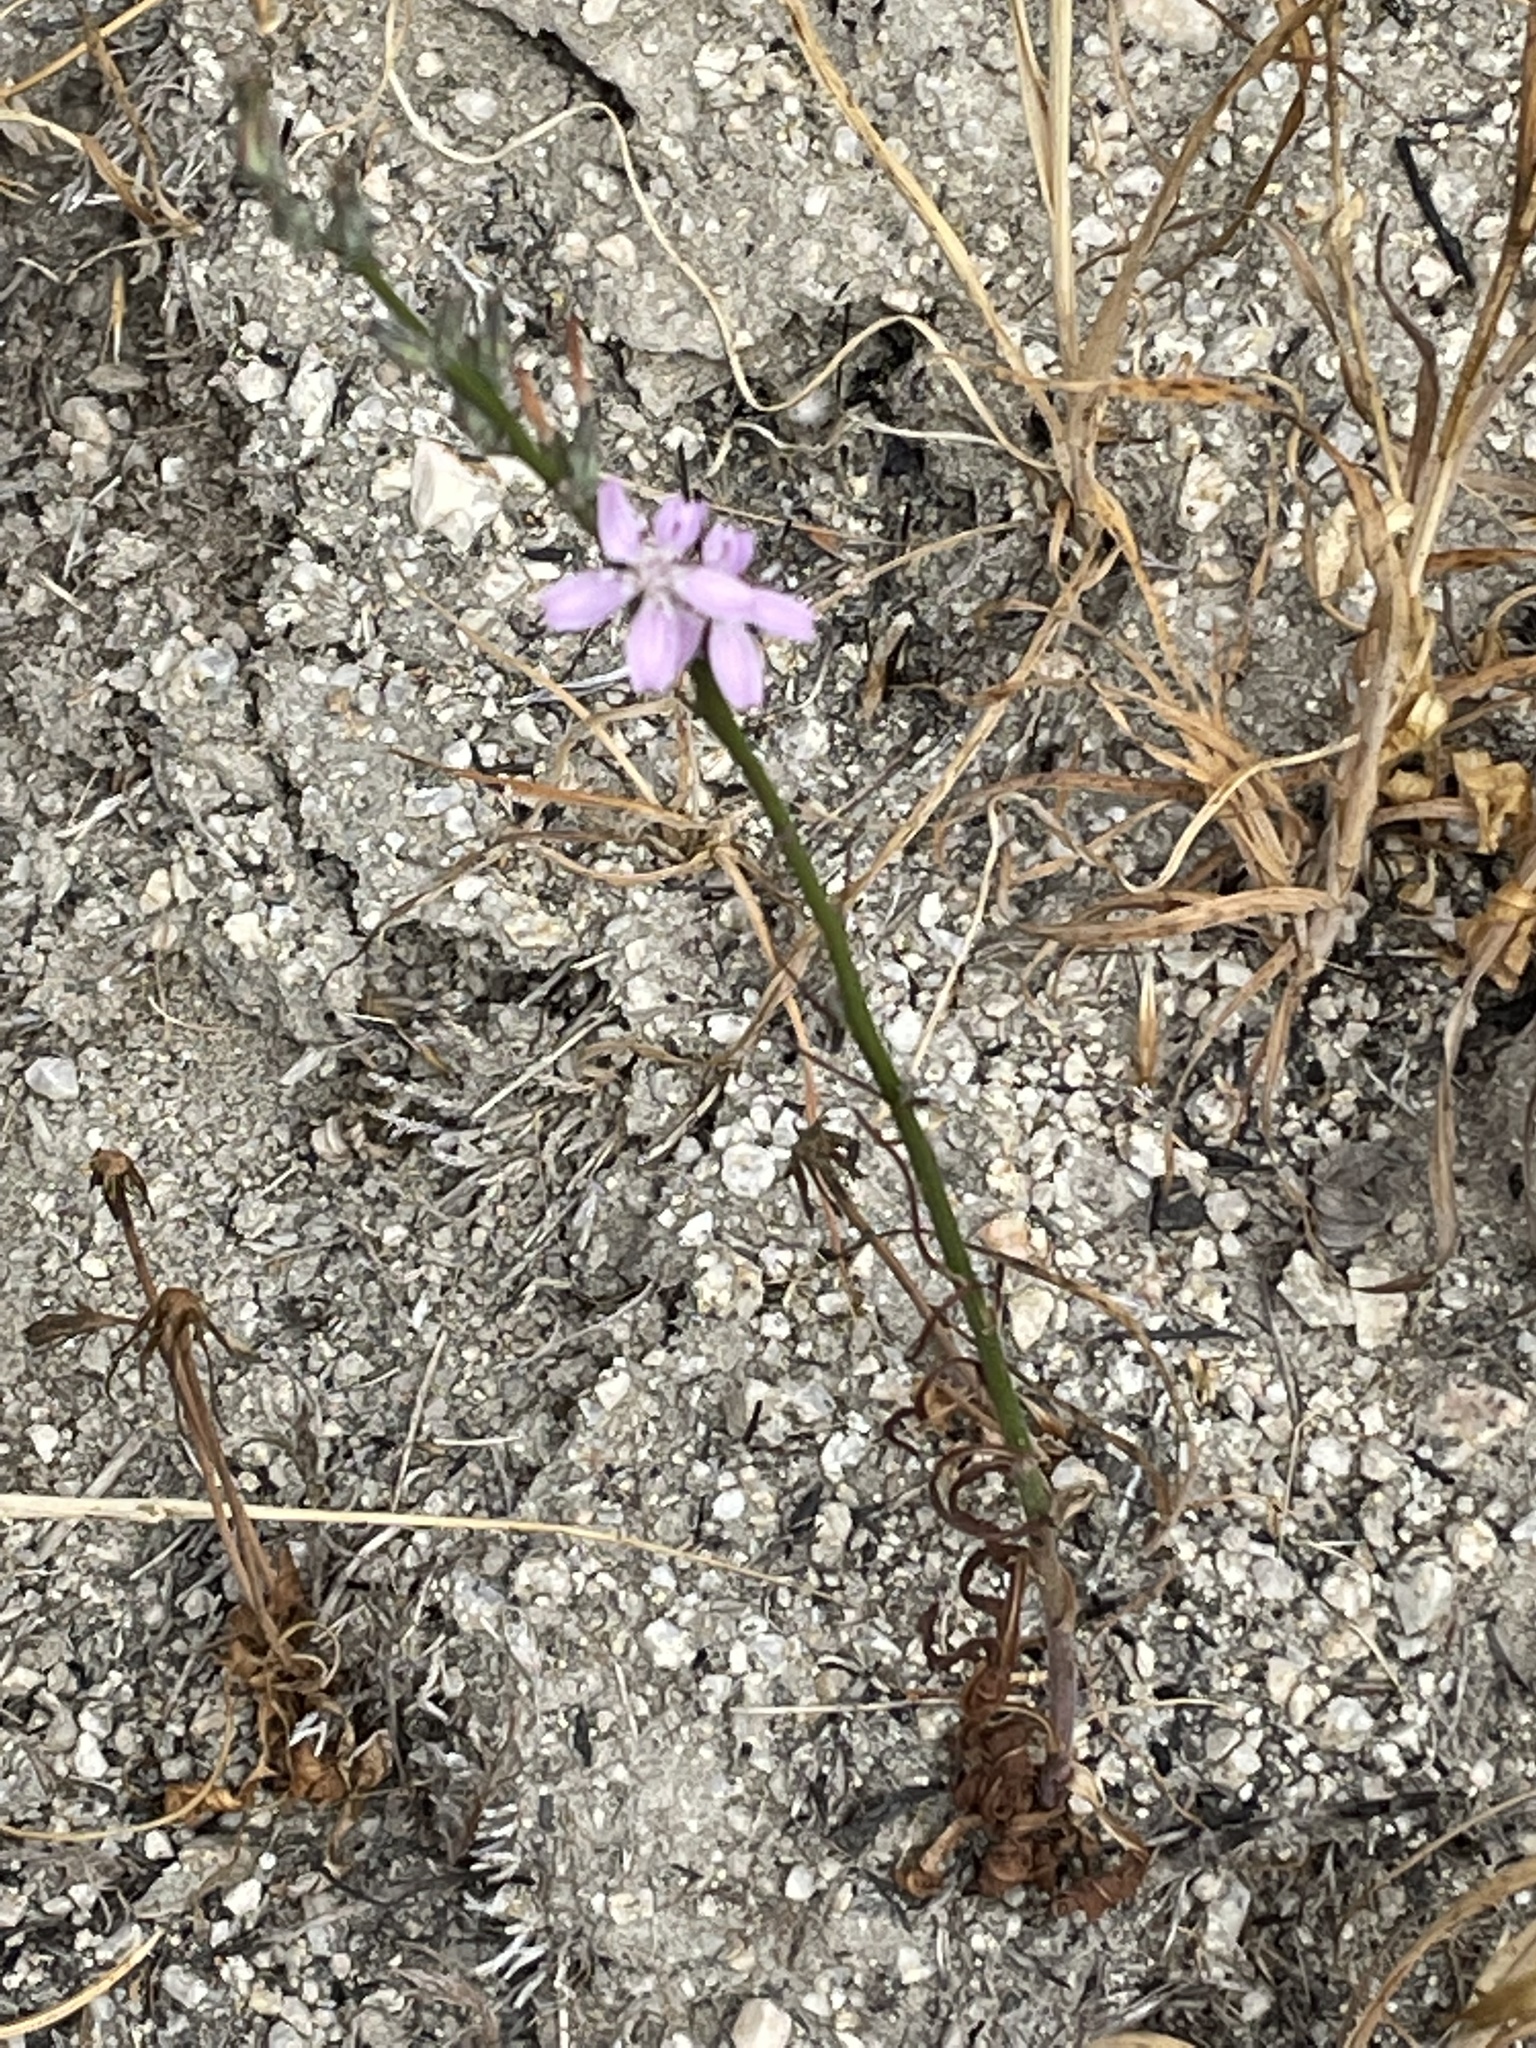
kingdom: Plantae
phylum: Tracheophyta
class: Magnoliopsida
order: Asterales
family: Asteraceae
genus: Stephanomeria
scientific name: Stephanomeria virgata
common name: Virgate wirelettuce
